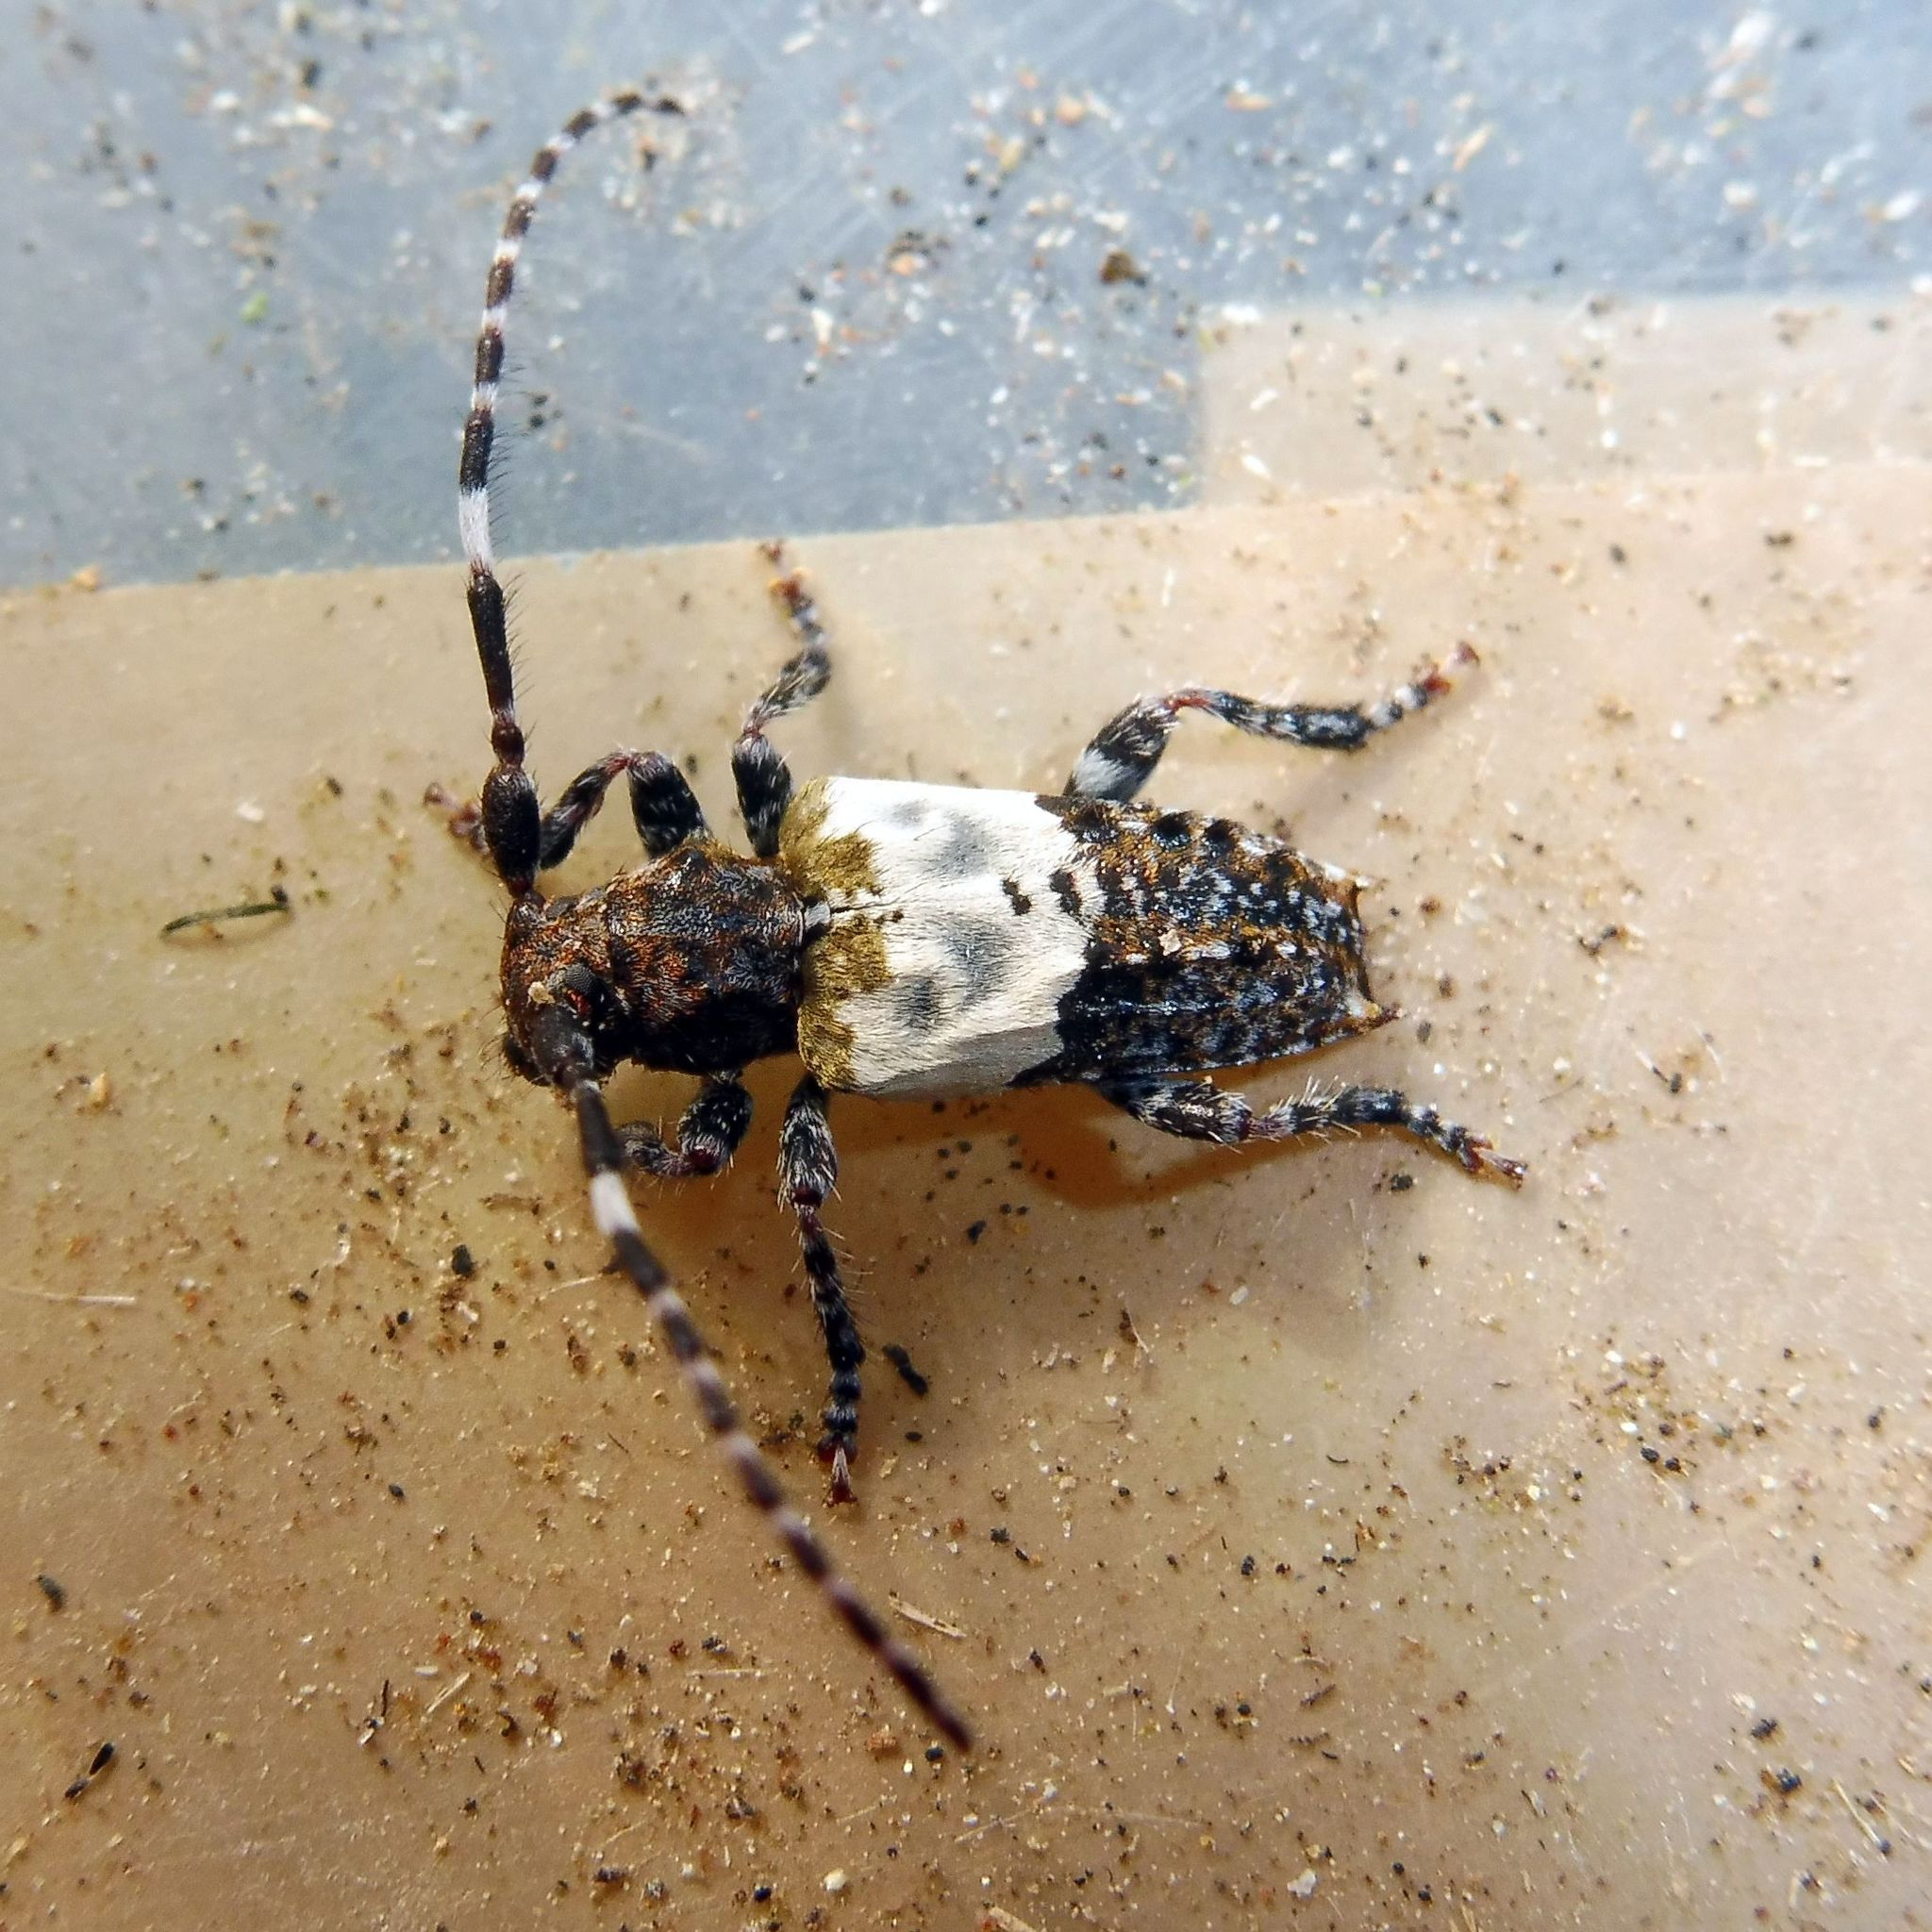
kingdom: Animalia
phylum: Arthropoda
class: Insecta
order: Coleoptera
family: Cerambycidae
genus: Pogonocherus
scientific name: Pogonocherus hispidulus
